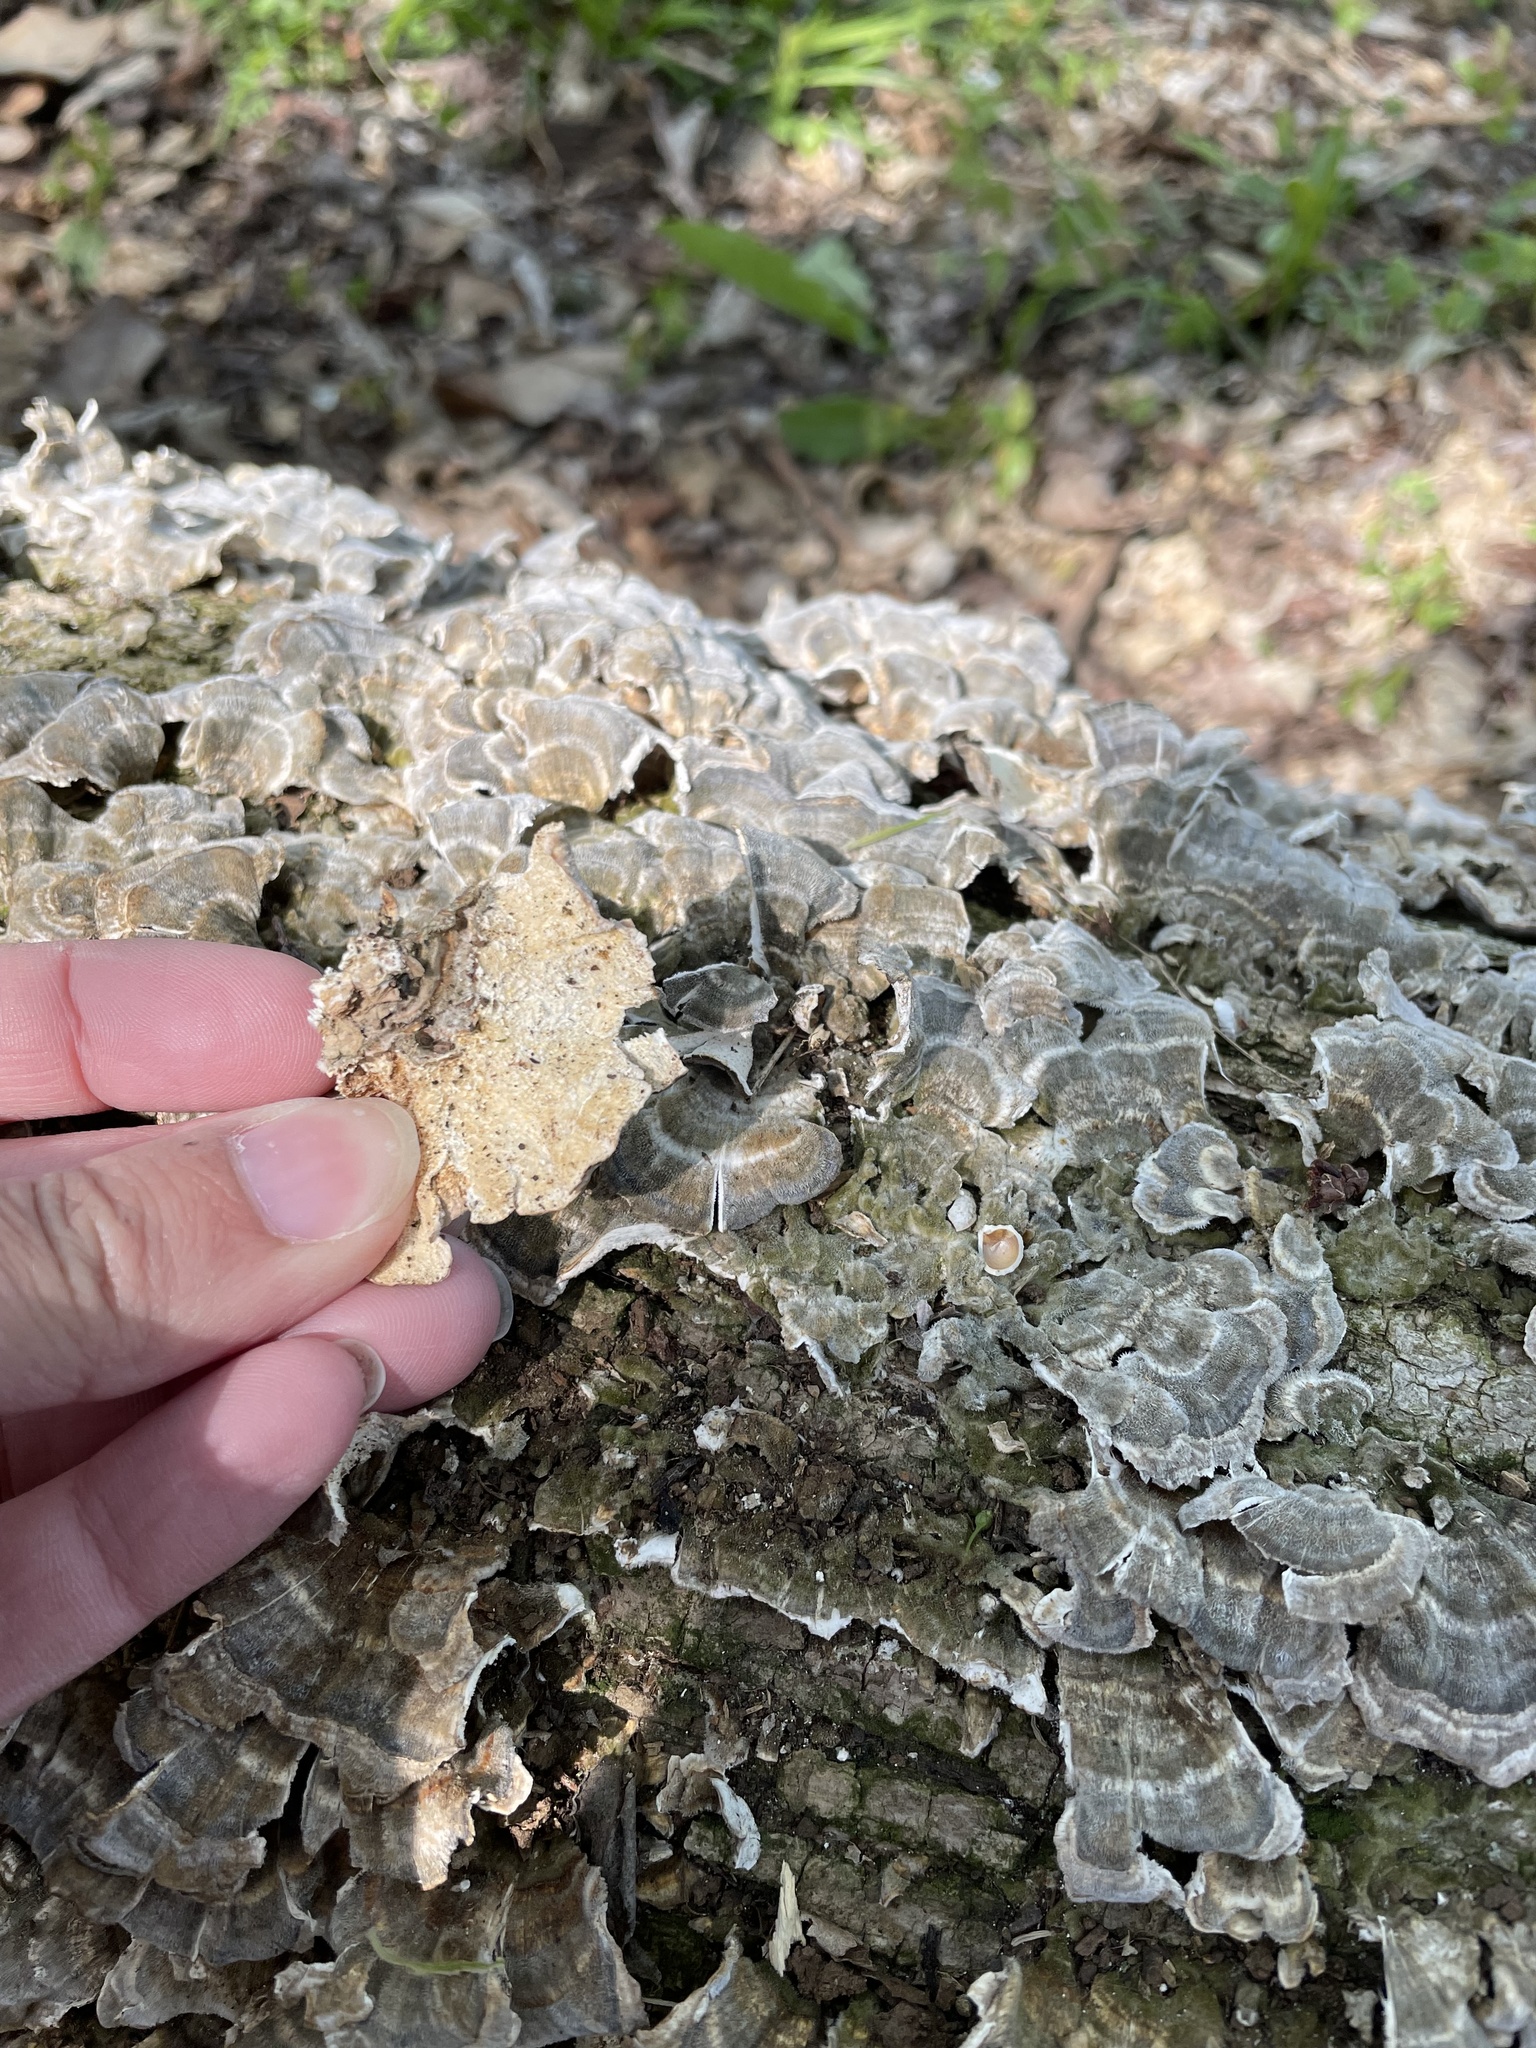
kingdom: Fungi
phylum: Basidiomycota
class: Agaricomycetes
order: Polyporales
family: Polyporaceae
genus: Trametes
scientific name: Trametes versicolor
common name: Turkeytail
